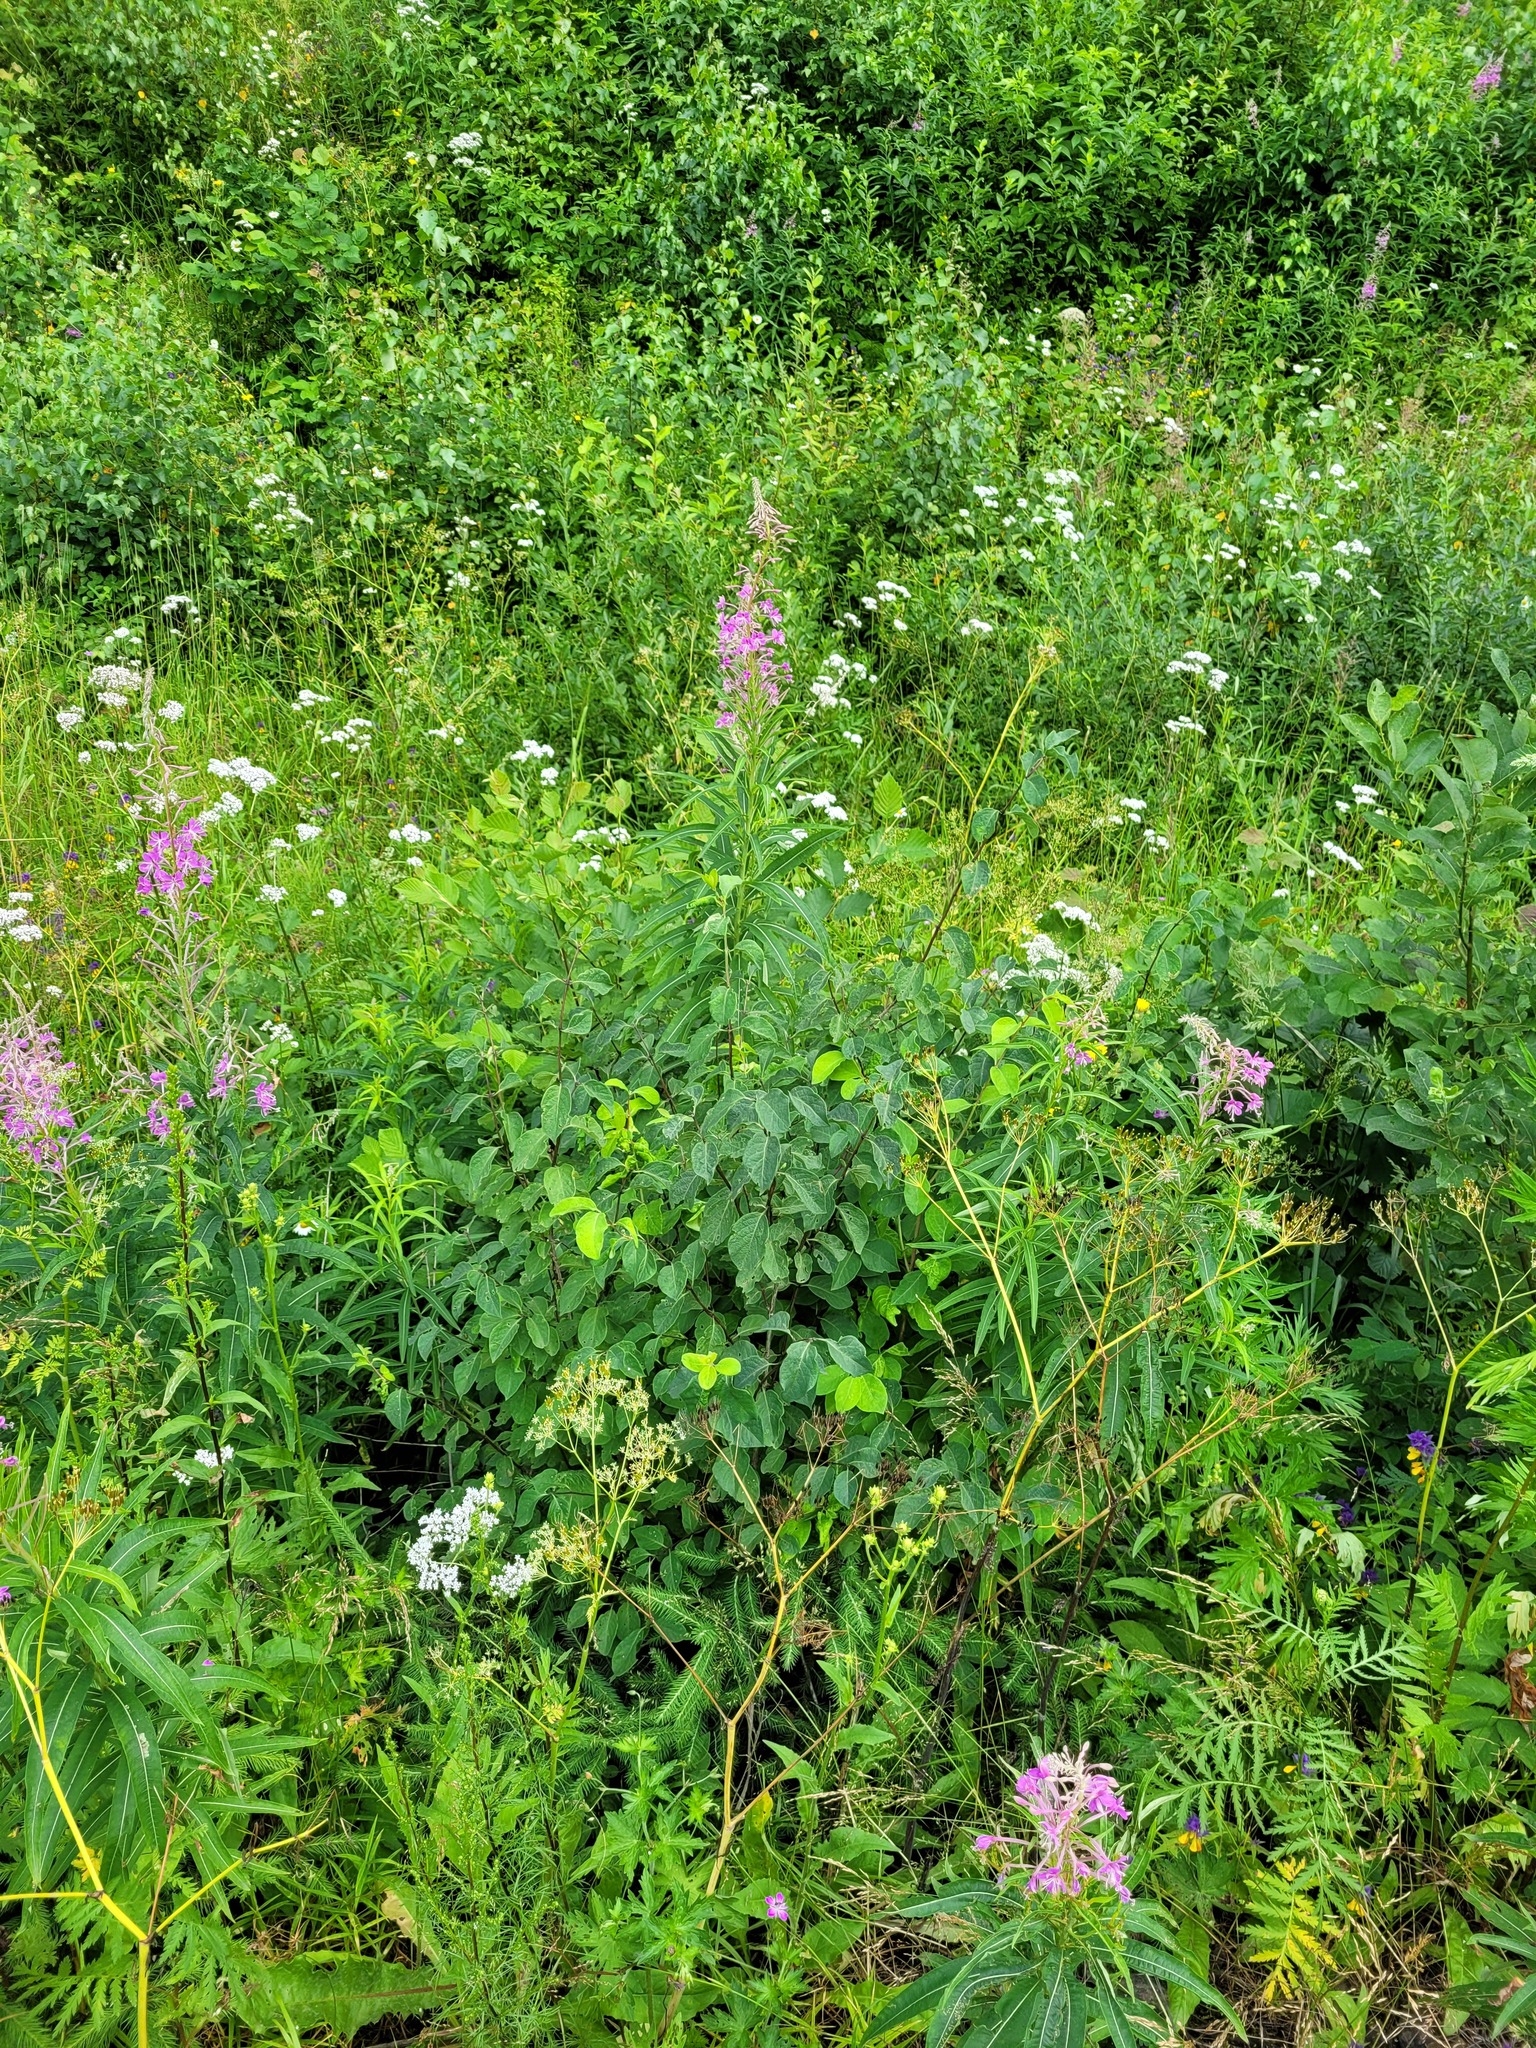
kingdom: Plantae
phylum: Tracheophyta
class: Magnoliopsida
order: Dipsacales
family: Caprifoliaceae
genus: Lonicera
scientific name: Lonicera xylosteum
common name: Fly honeysuckle
